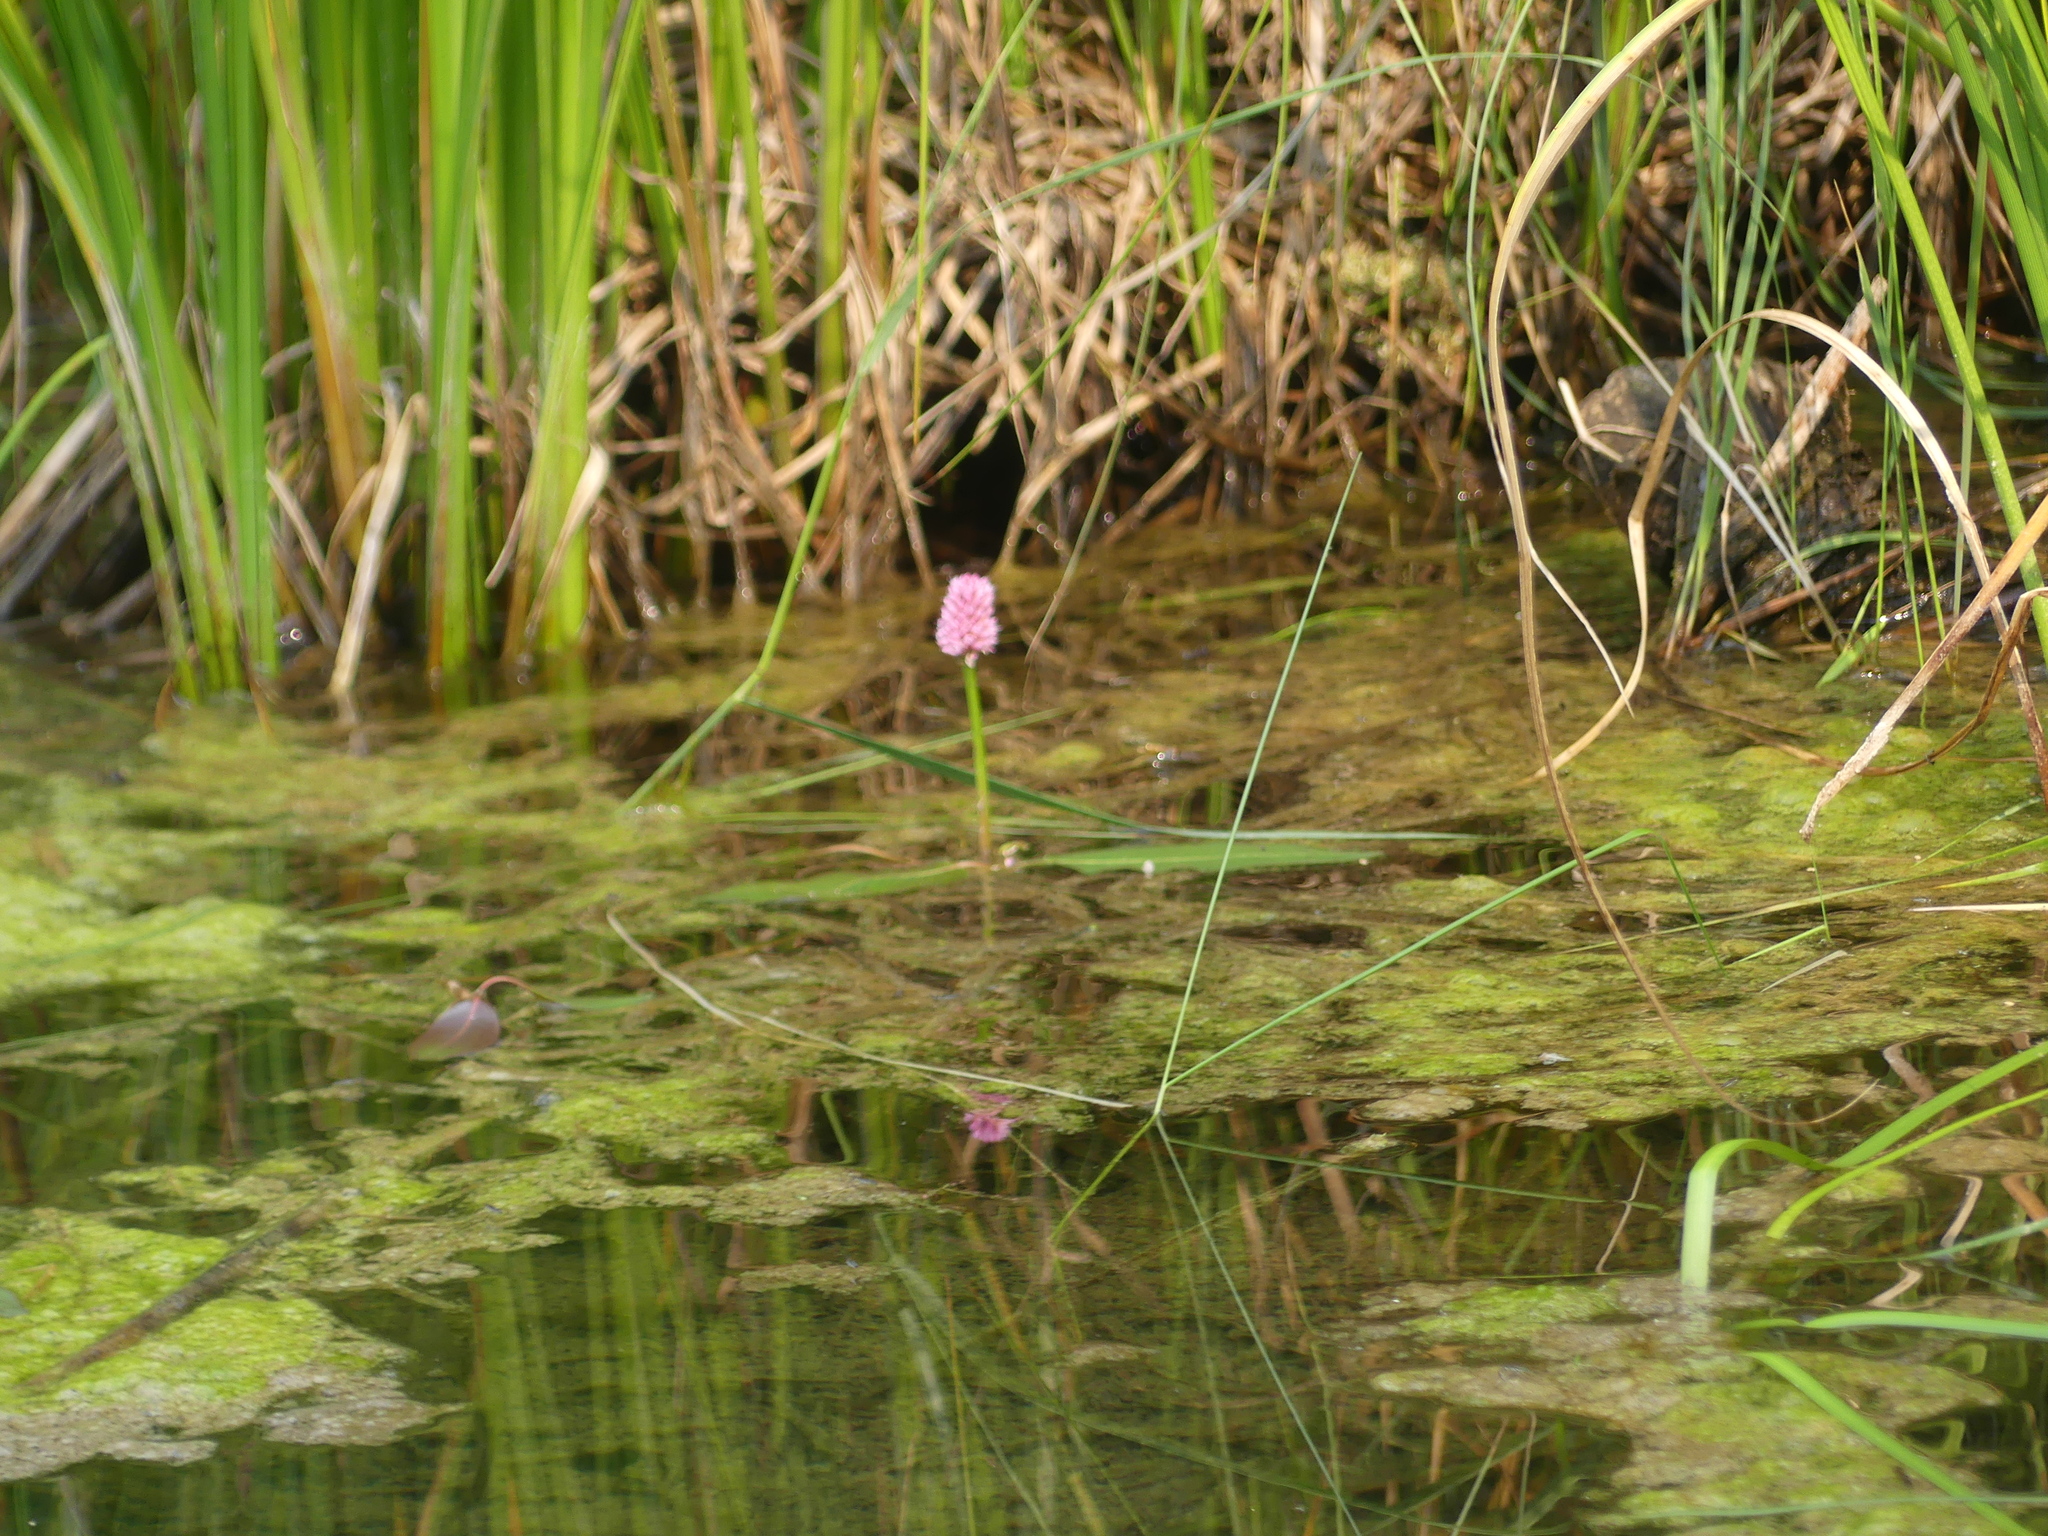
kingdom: Plantae
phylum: Tracheophyta
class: Magnoliopsida
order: Caryophyllales
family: Polygonaceae
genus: Persicaria
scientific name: Persicaria amphibia
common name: Amphibious bistort
